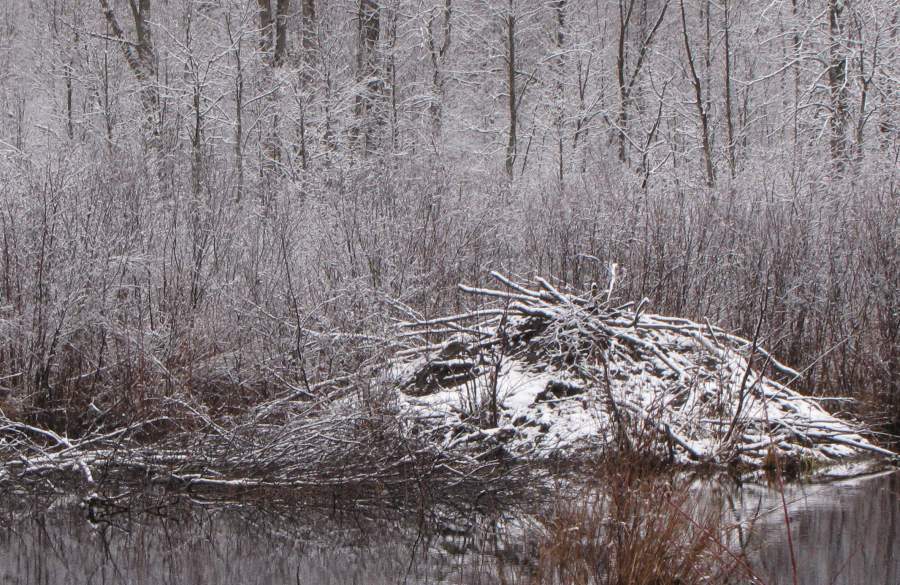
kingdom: Animalia
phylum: Chordata
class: Mammalia
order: Rodentia
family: Castoridae
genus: Castor
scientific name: Castor canadensis
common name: American beaver
